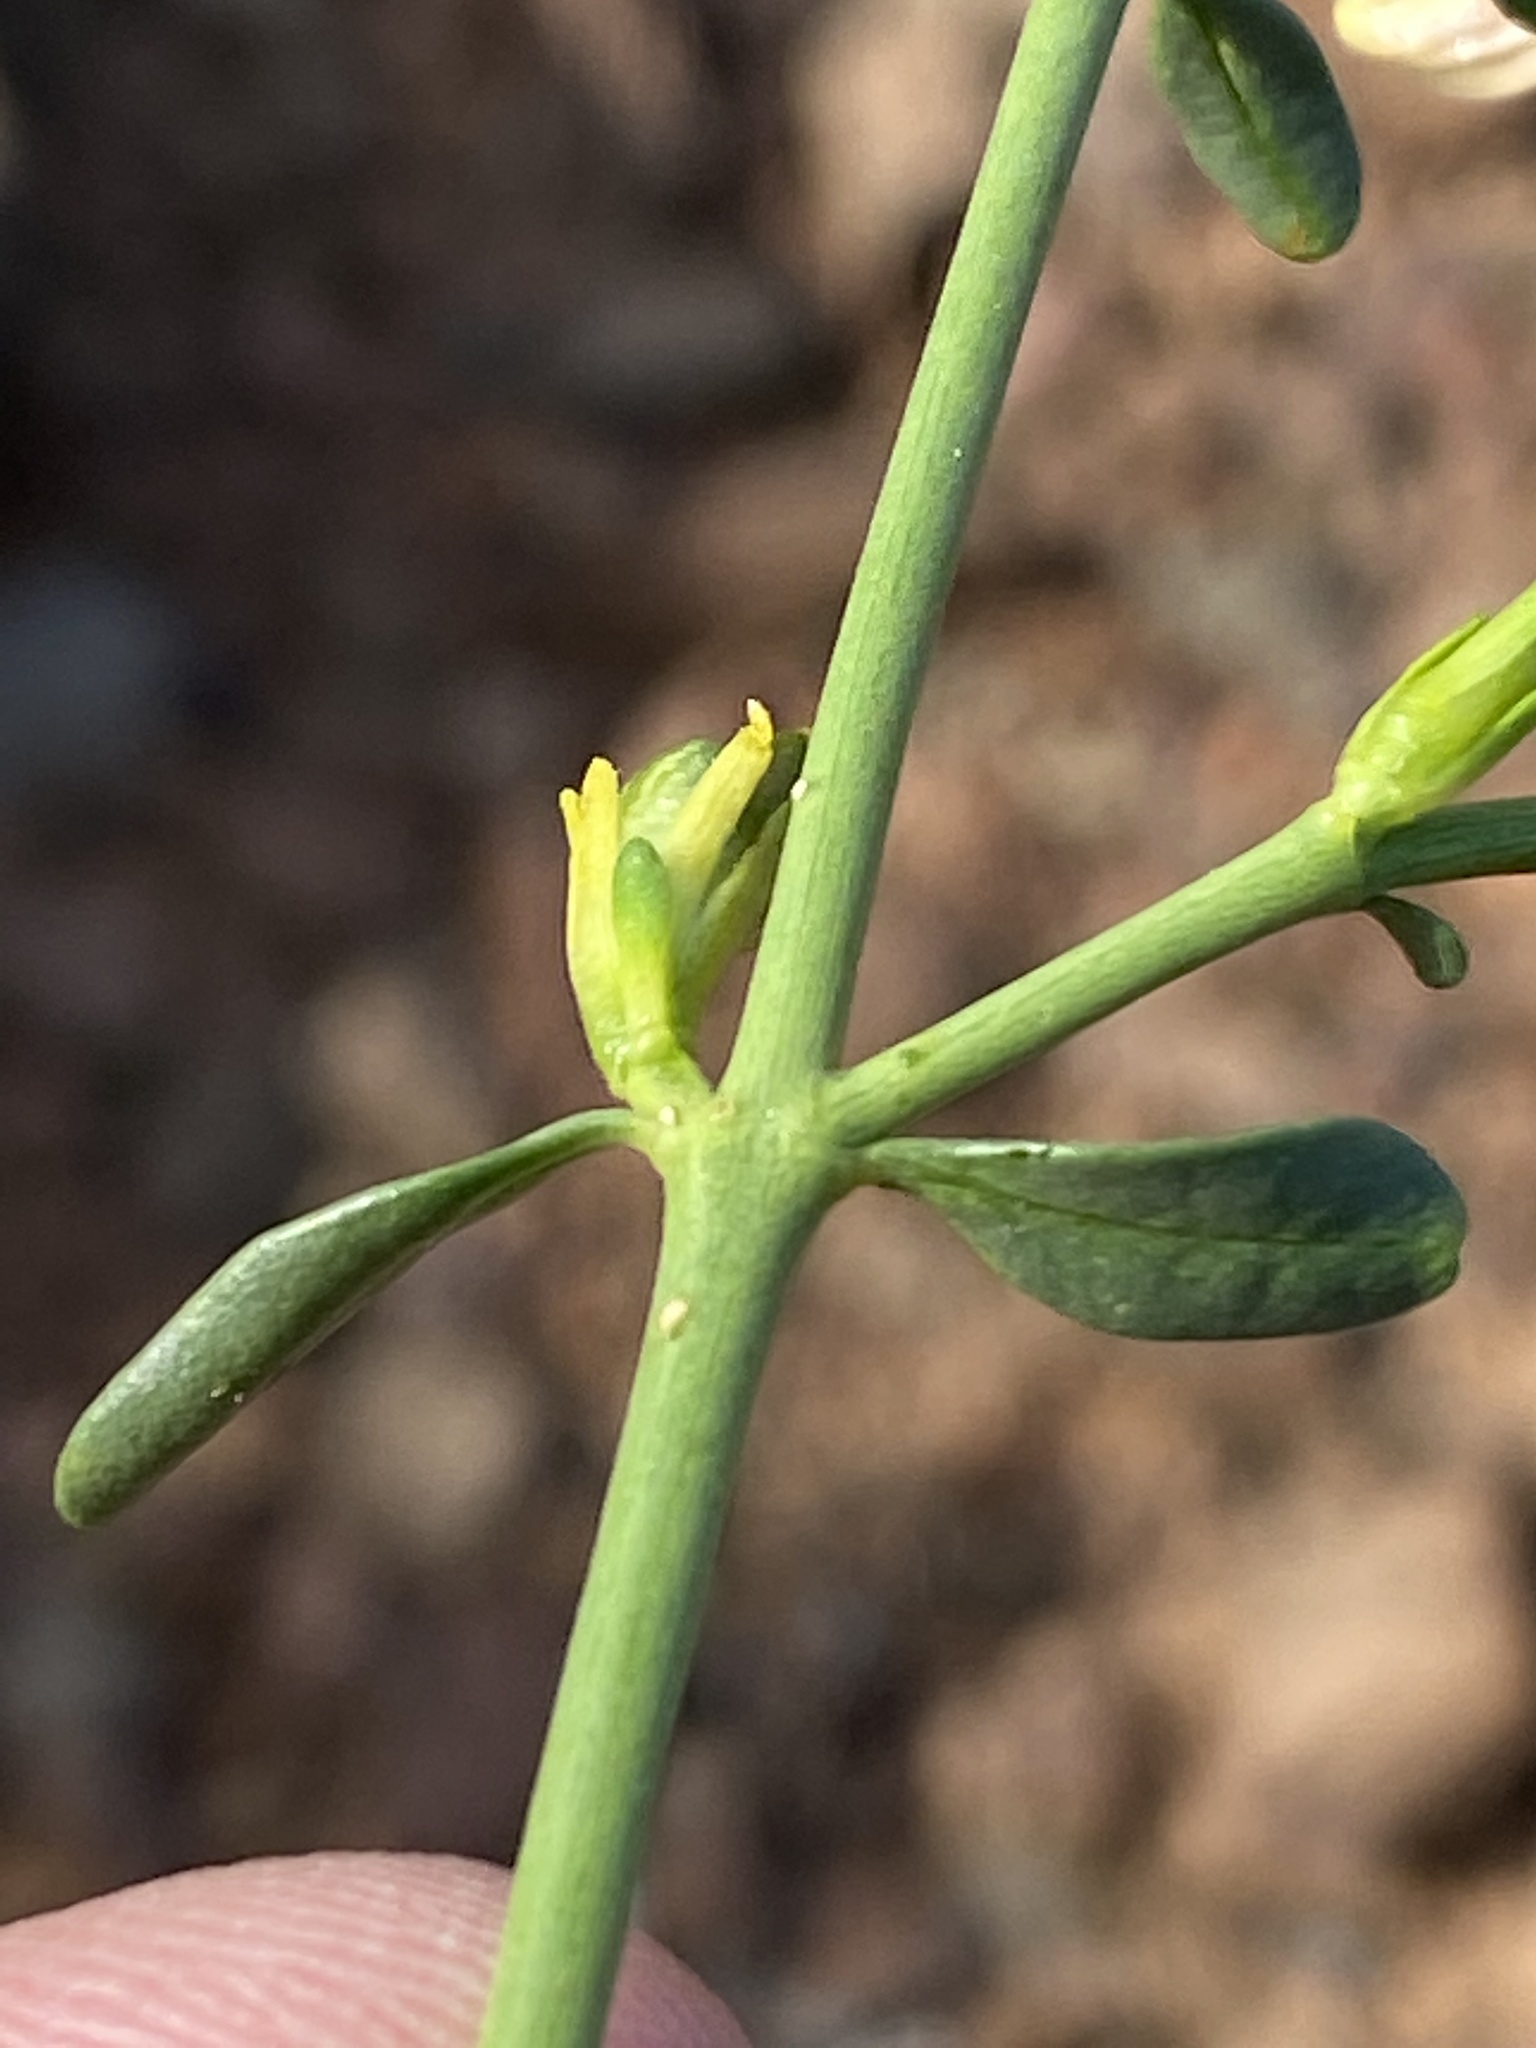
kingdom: Plantae
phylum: Tracheophyta
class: Magnoliopsida
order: Lamiales
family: Acanthaceae
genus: Pogonospermum
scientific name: Pogonospermum
